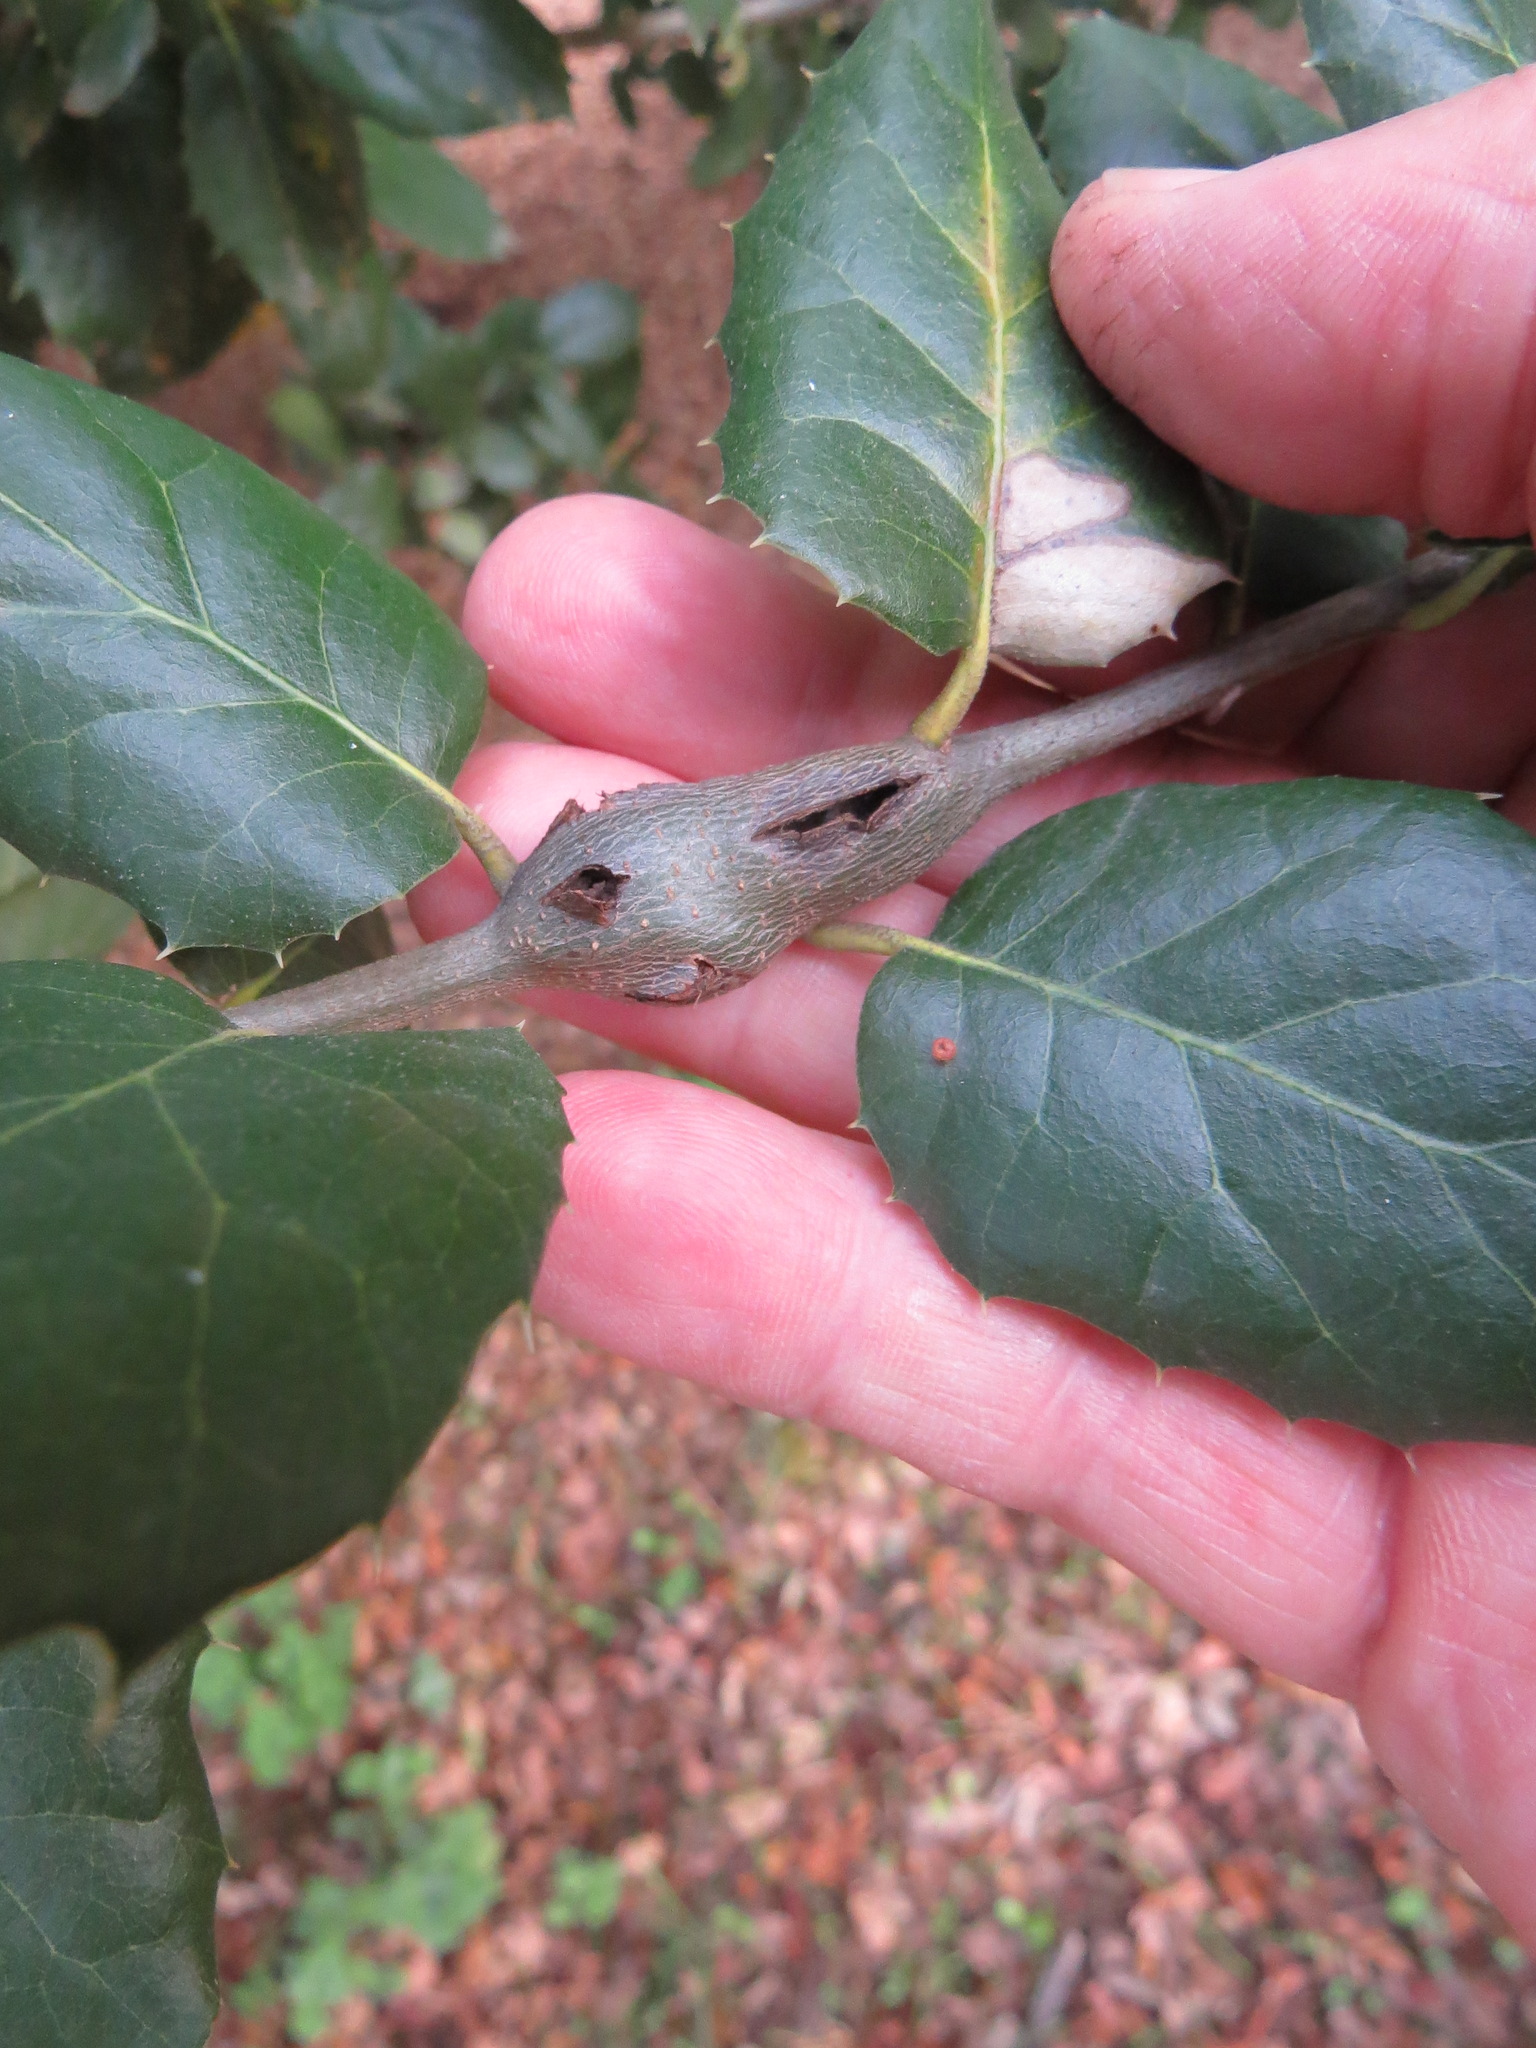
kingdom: Animalia
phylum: Arthropoda
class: Insecta
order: Hymenoptera
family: Cynipidae
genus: Callirhytis
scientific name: Callirhytis
